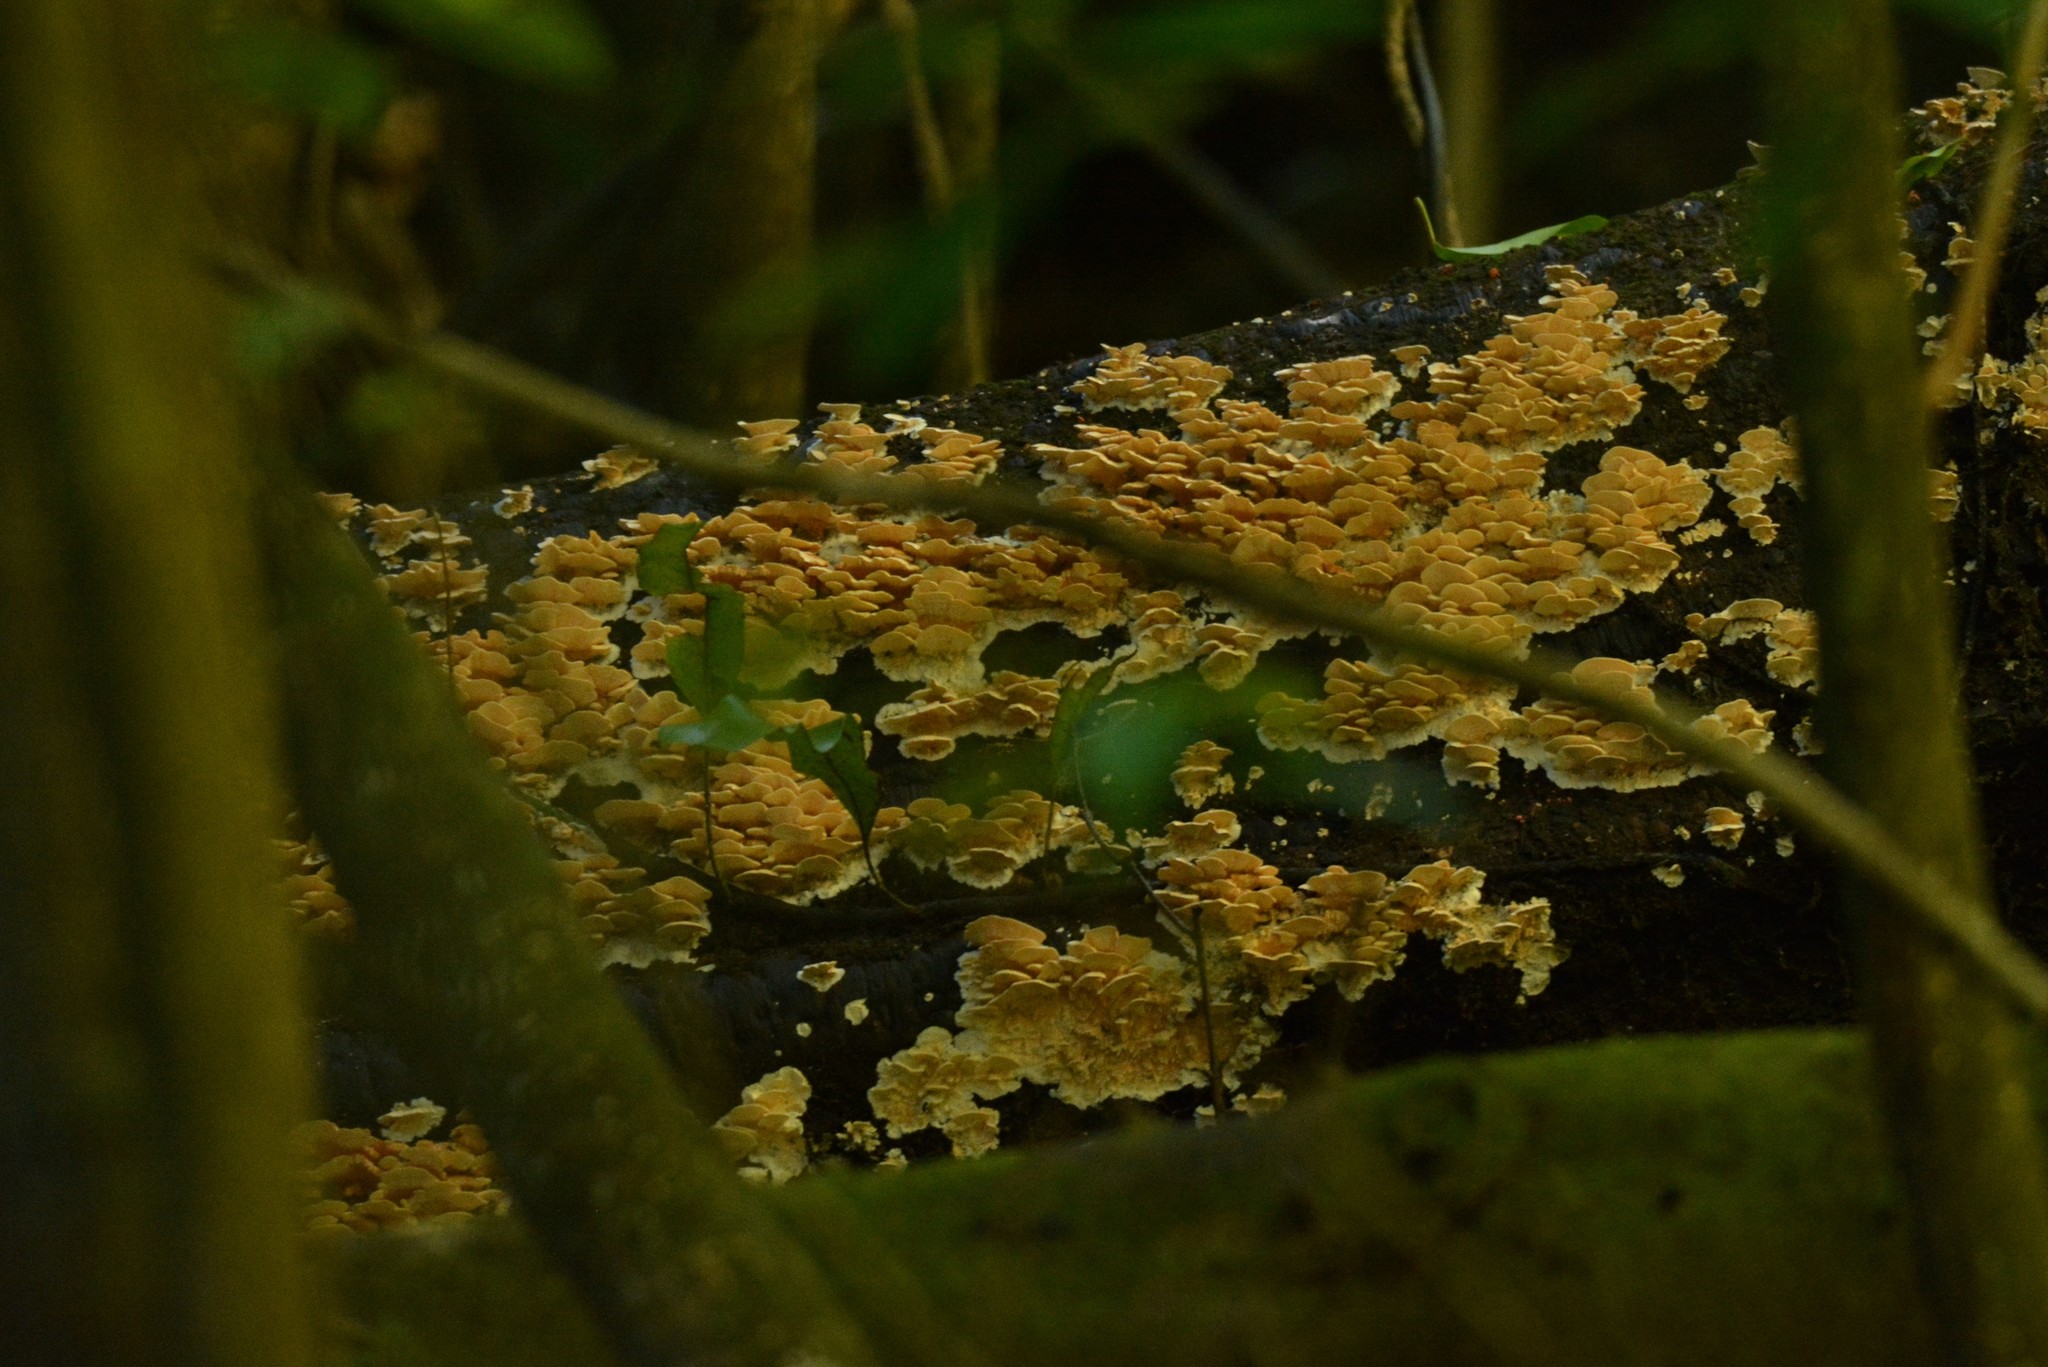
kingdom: Fungi
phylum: Basidiomycota
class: Agaricomycetes
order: Polyporales
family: Cerrenaceae
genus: Cerrena
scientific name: Cerrena zonata
